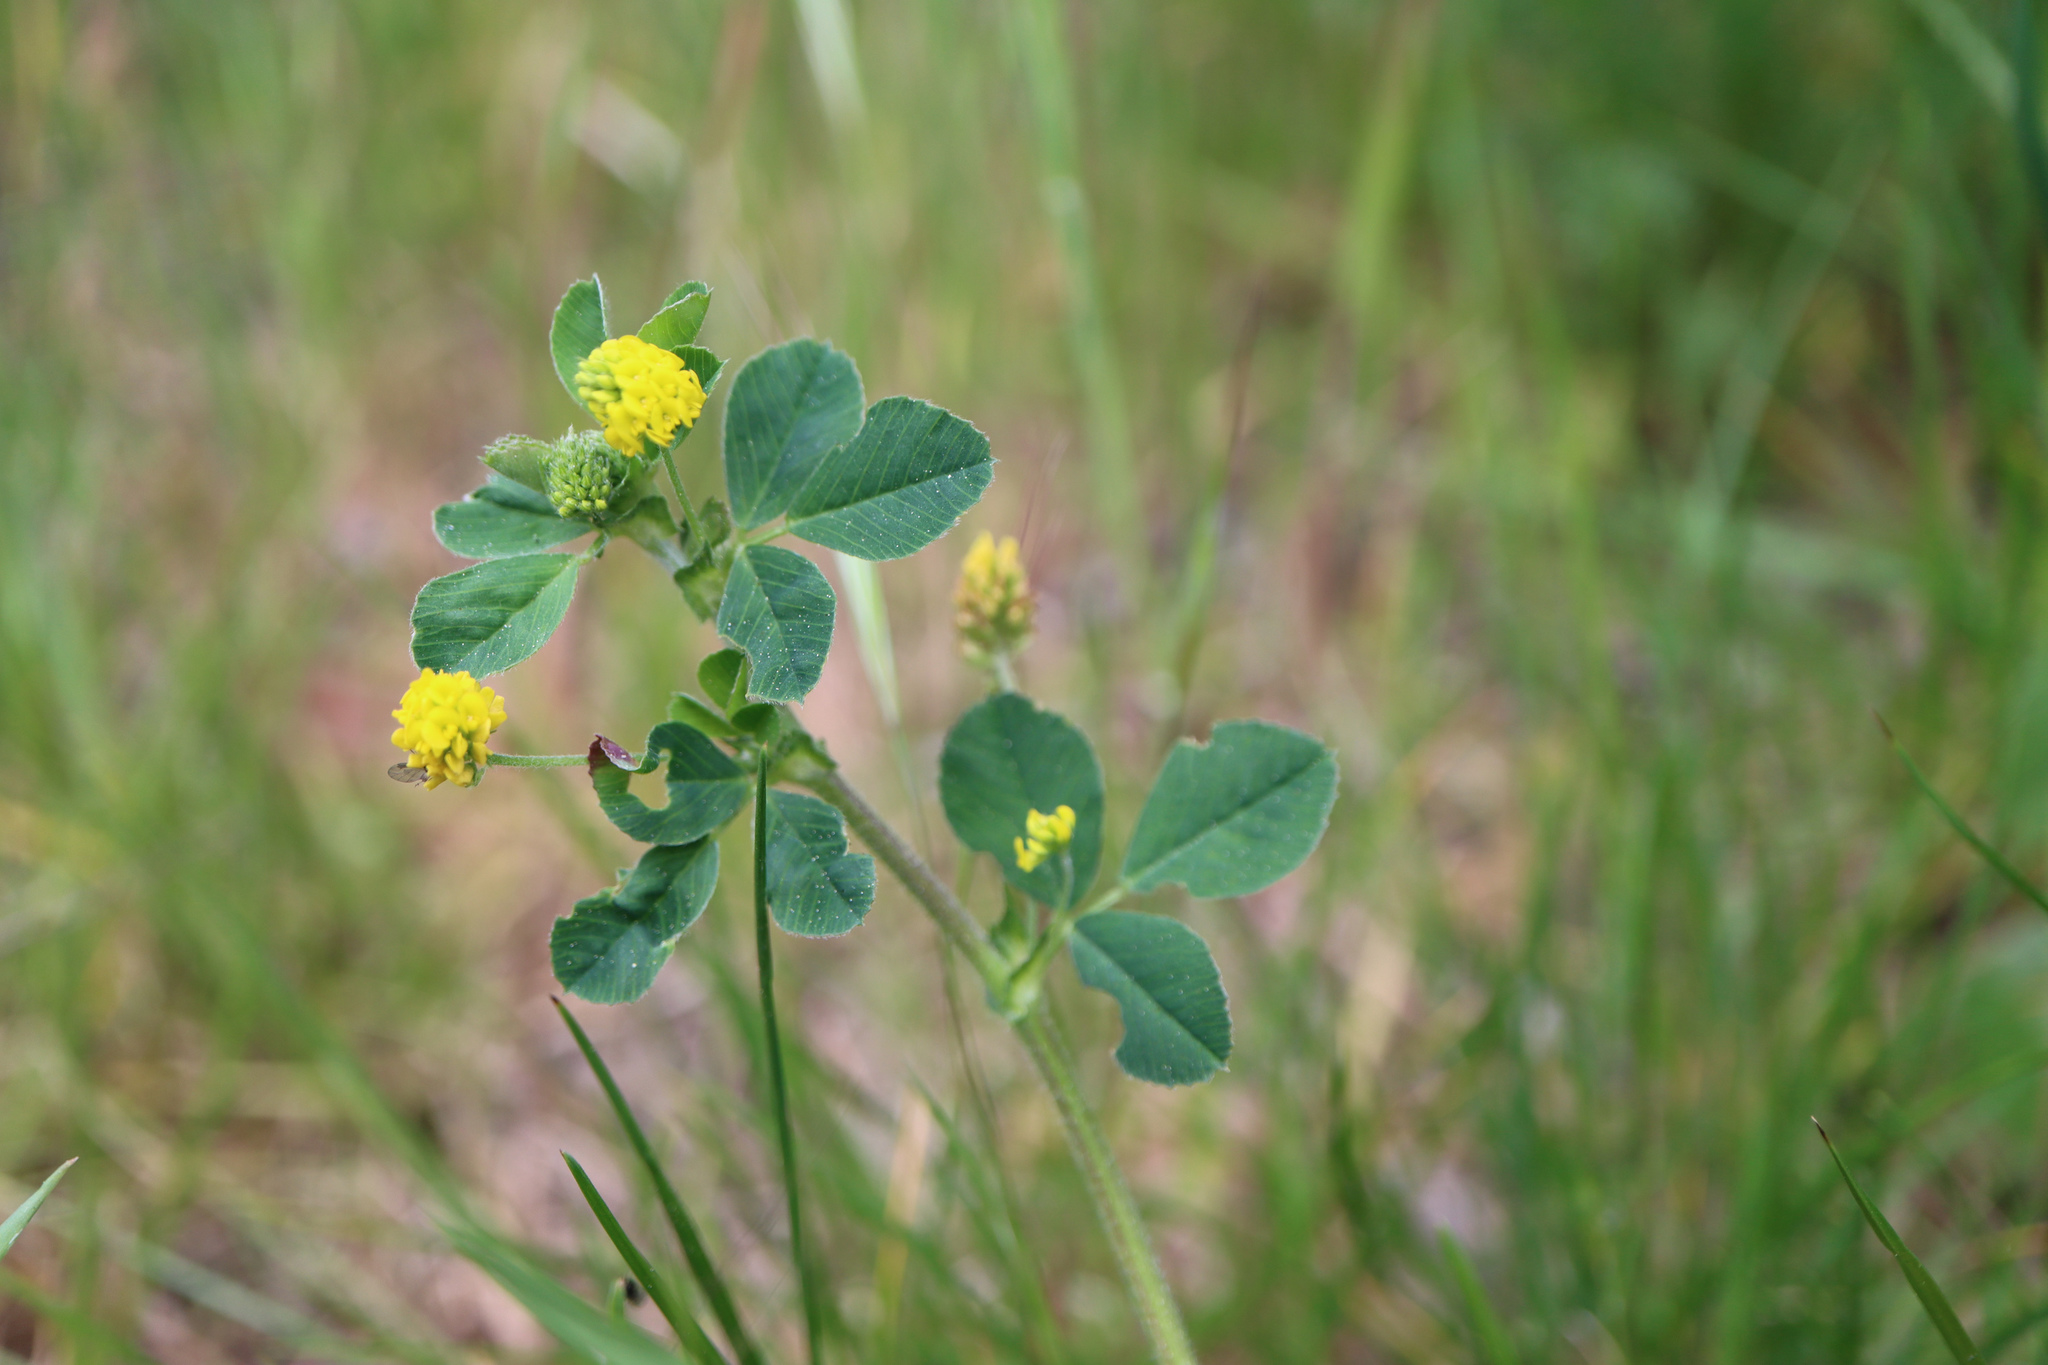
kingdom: Plantae
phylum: Tracheophyta
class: Magnoliopsida
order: Fabales
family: Fabaceae
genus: Medicago
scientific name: Medicago lupulina
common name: Black medick
